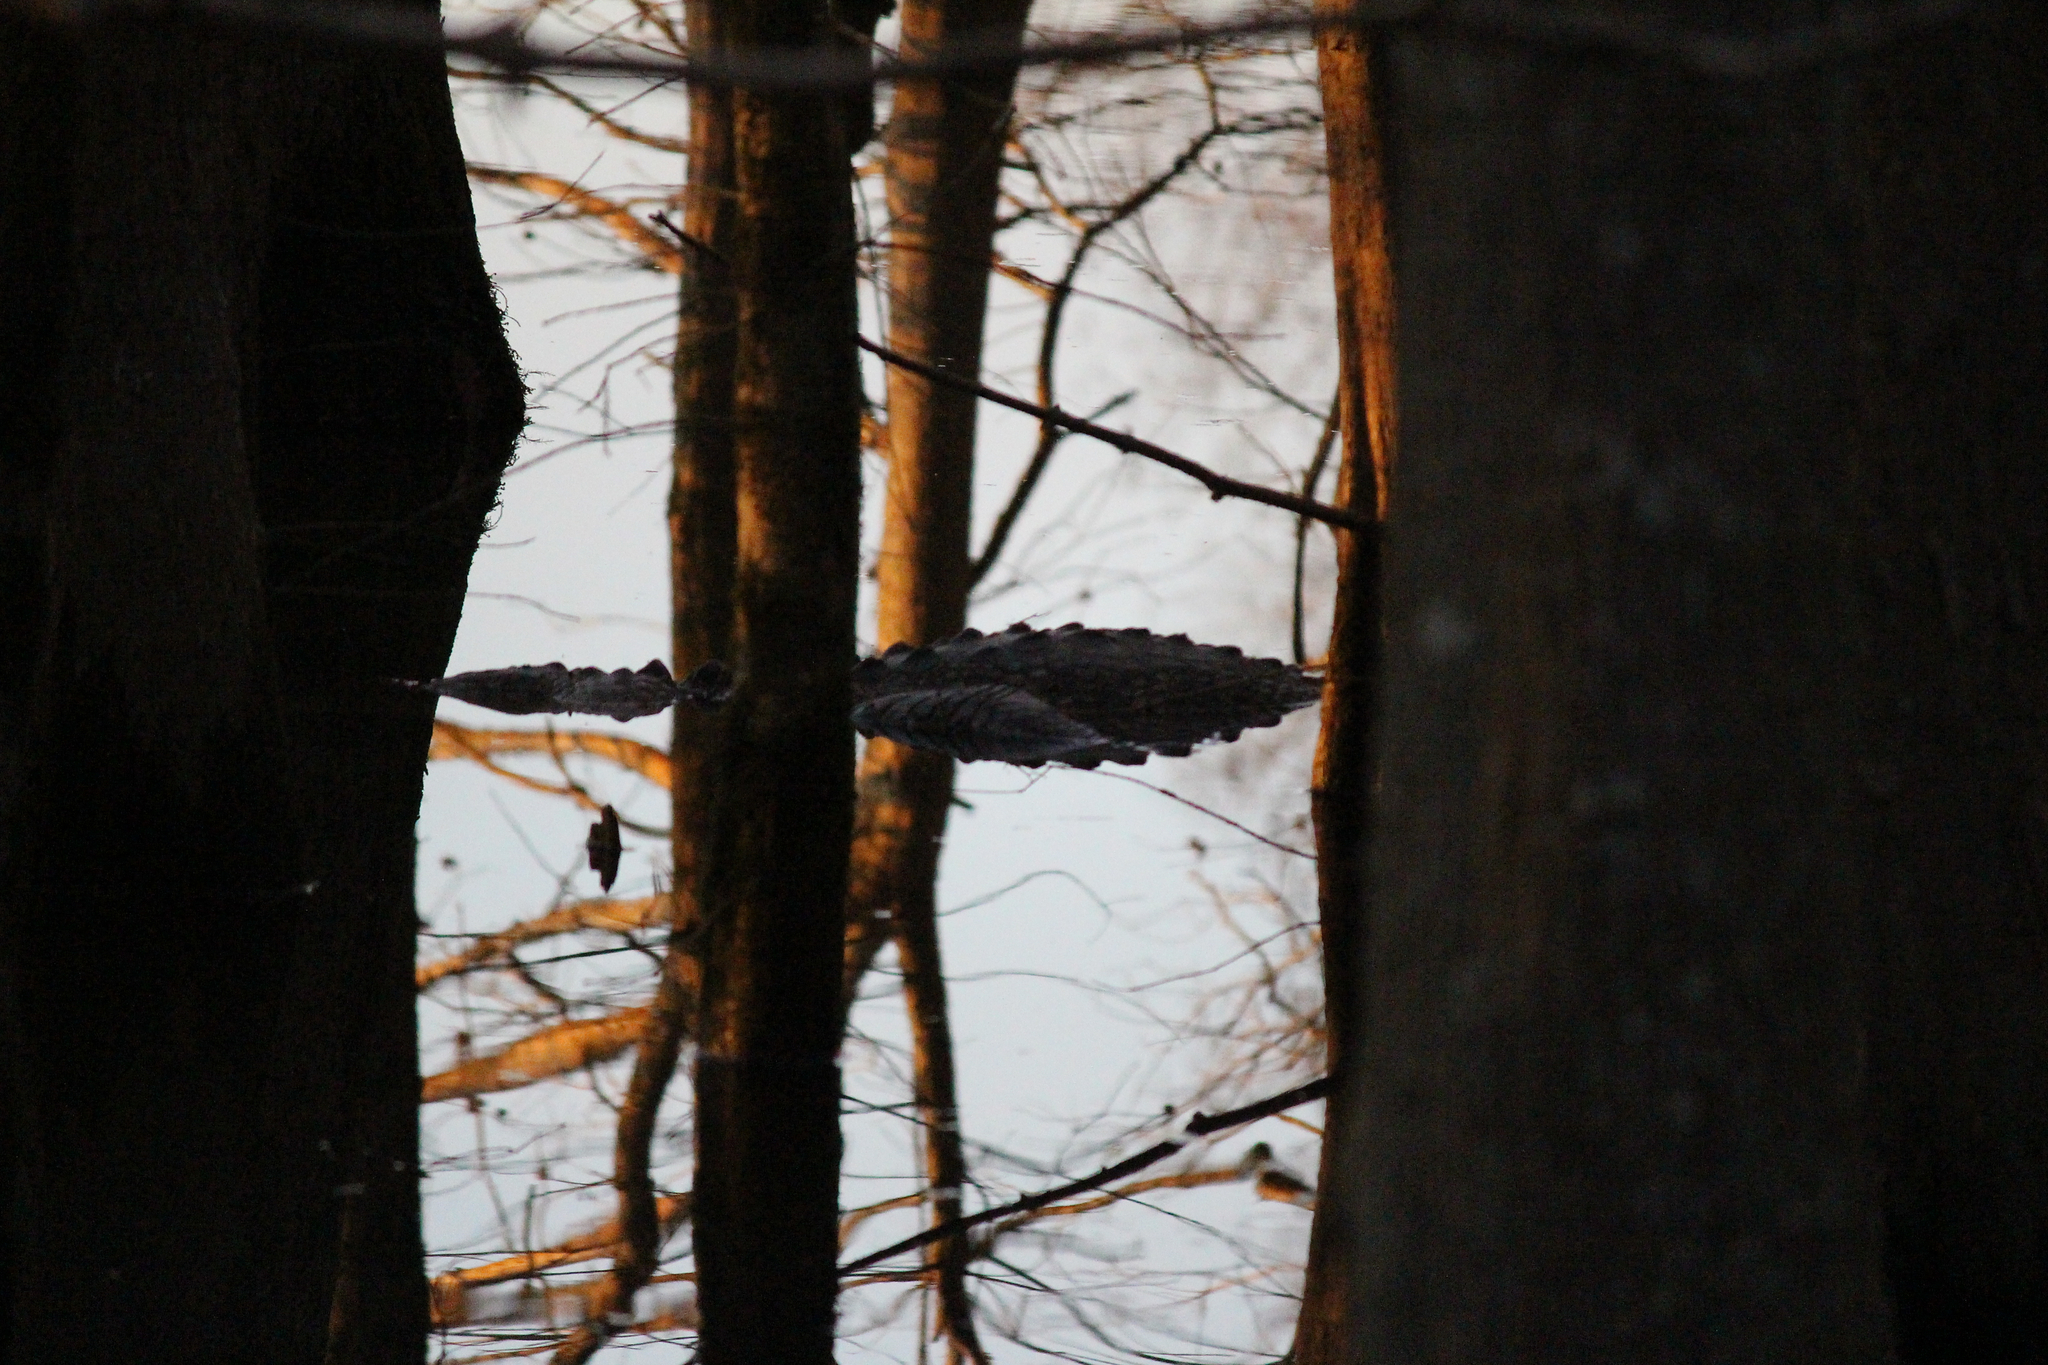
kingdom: Animalia
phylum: Chordata
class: Crocodylia
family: Alligatoridae
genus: Alligator
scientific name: Alligator mississippiensis
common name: American alligator
